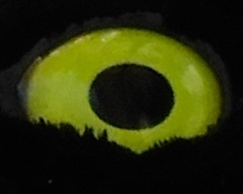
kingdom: Animalia
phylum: Chordata
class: Aves
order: Passeriformes
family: Corvidae
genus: Cyanocorax
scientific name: Cyanocorax beecheii
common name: Purplish-backed jay
